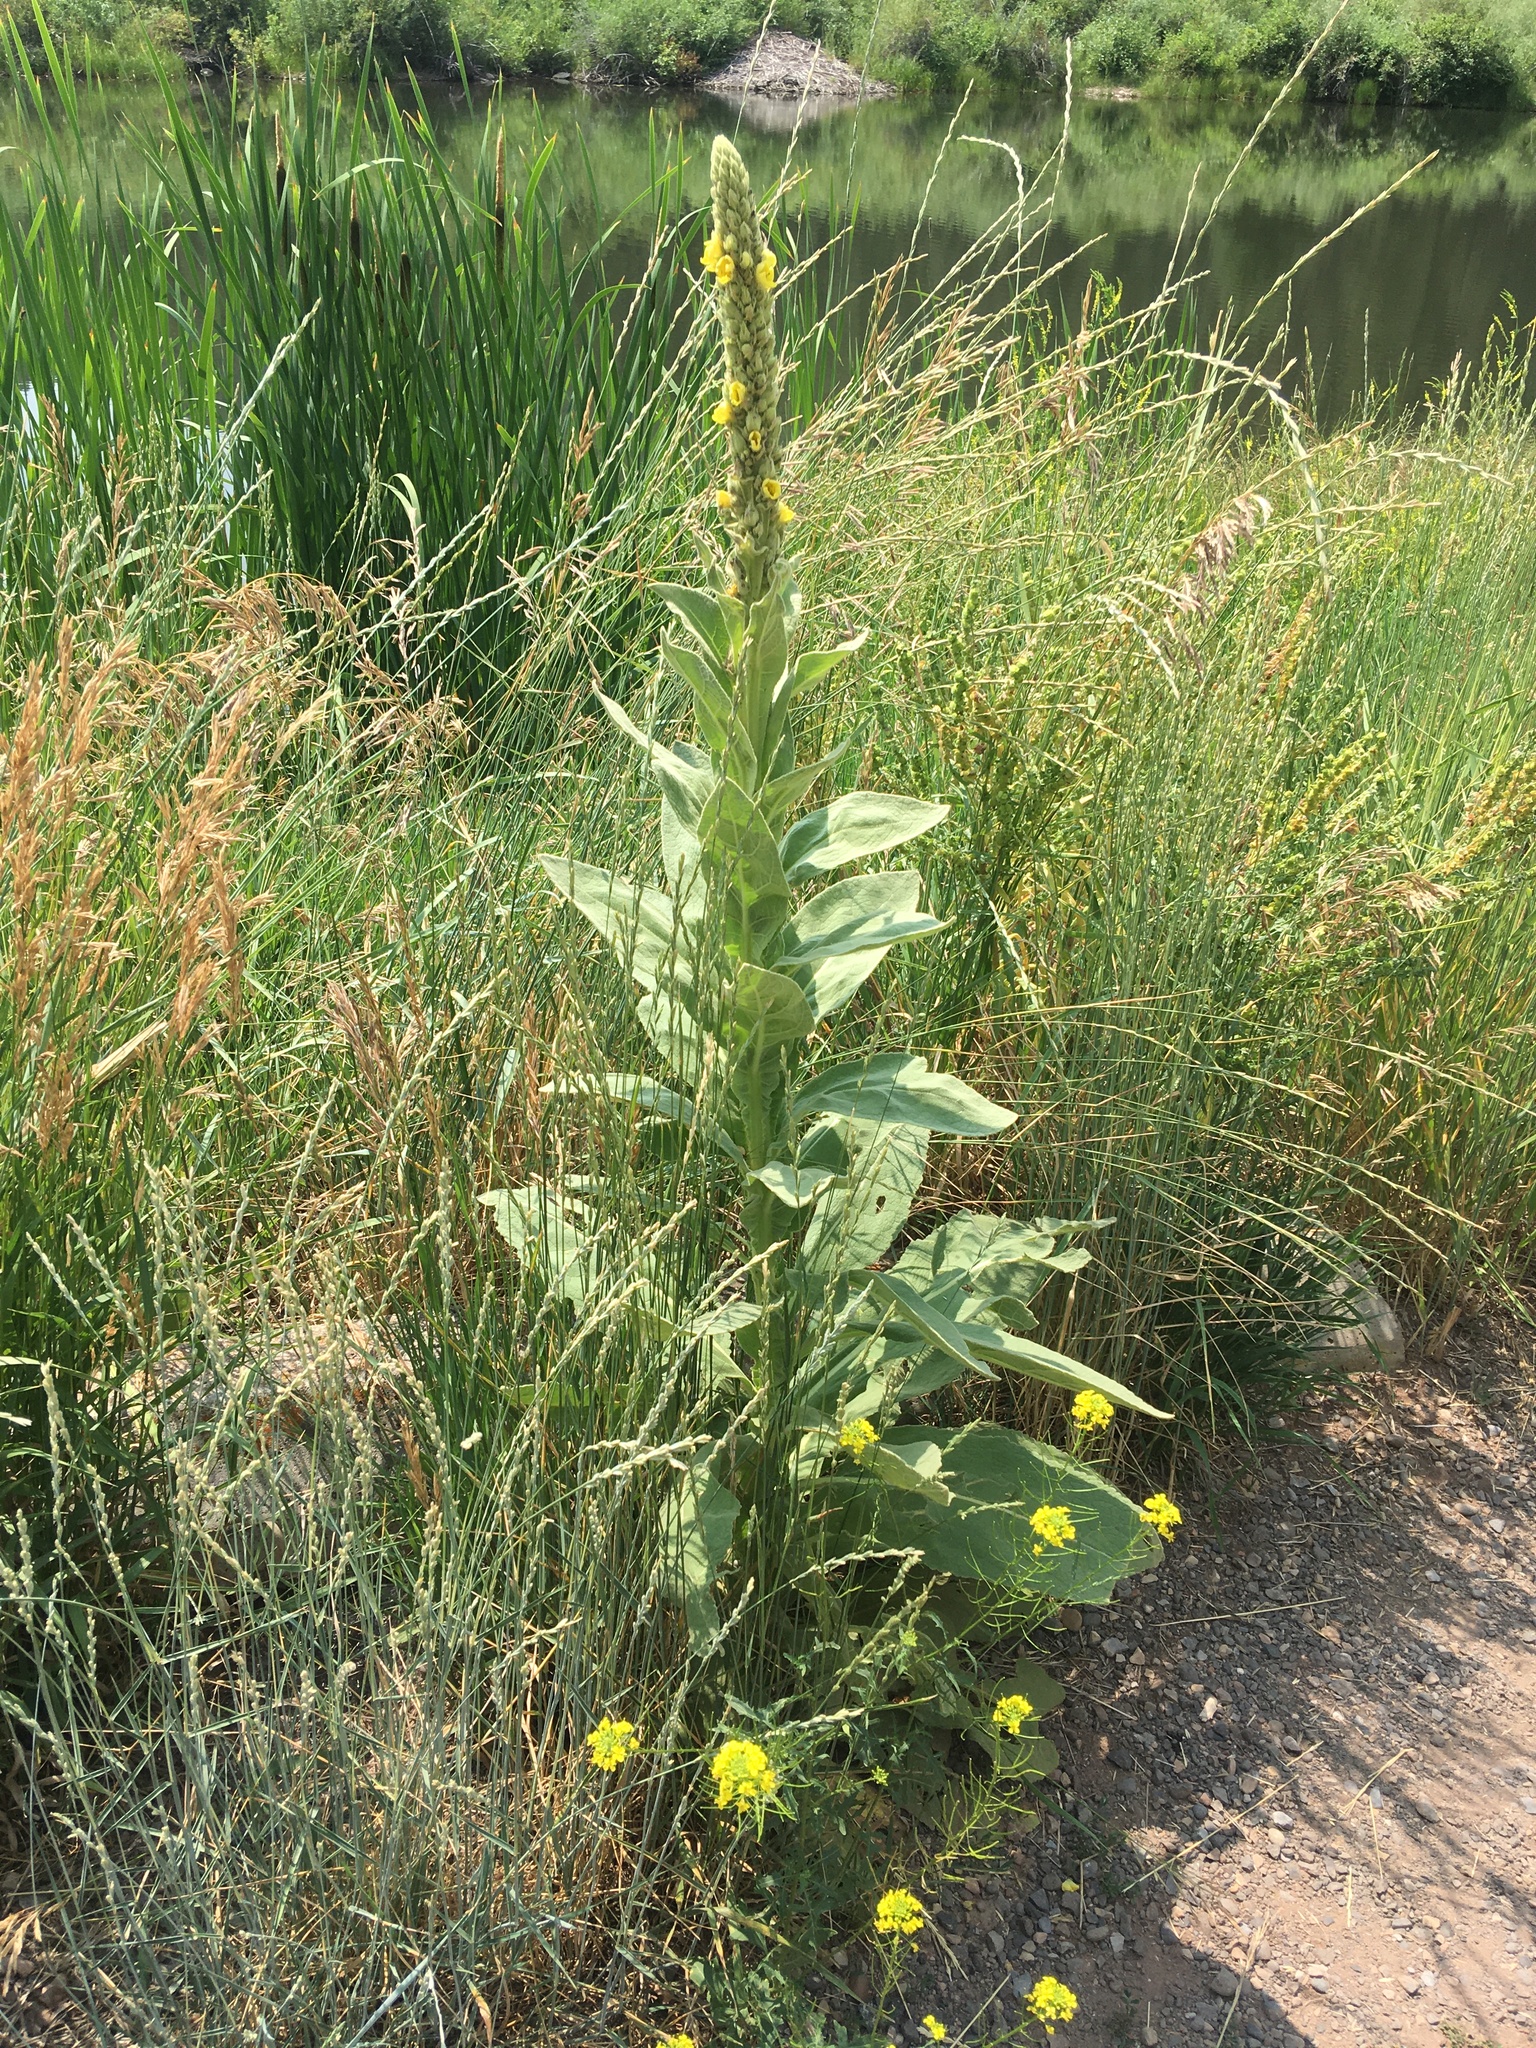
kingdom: Plantae
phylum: Tracheophyta
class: Magnoliopsida
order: Lamiales
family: Scrophulariaceae
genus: Verbascum
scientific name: Verbascum thapsus
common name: Common mullein
